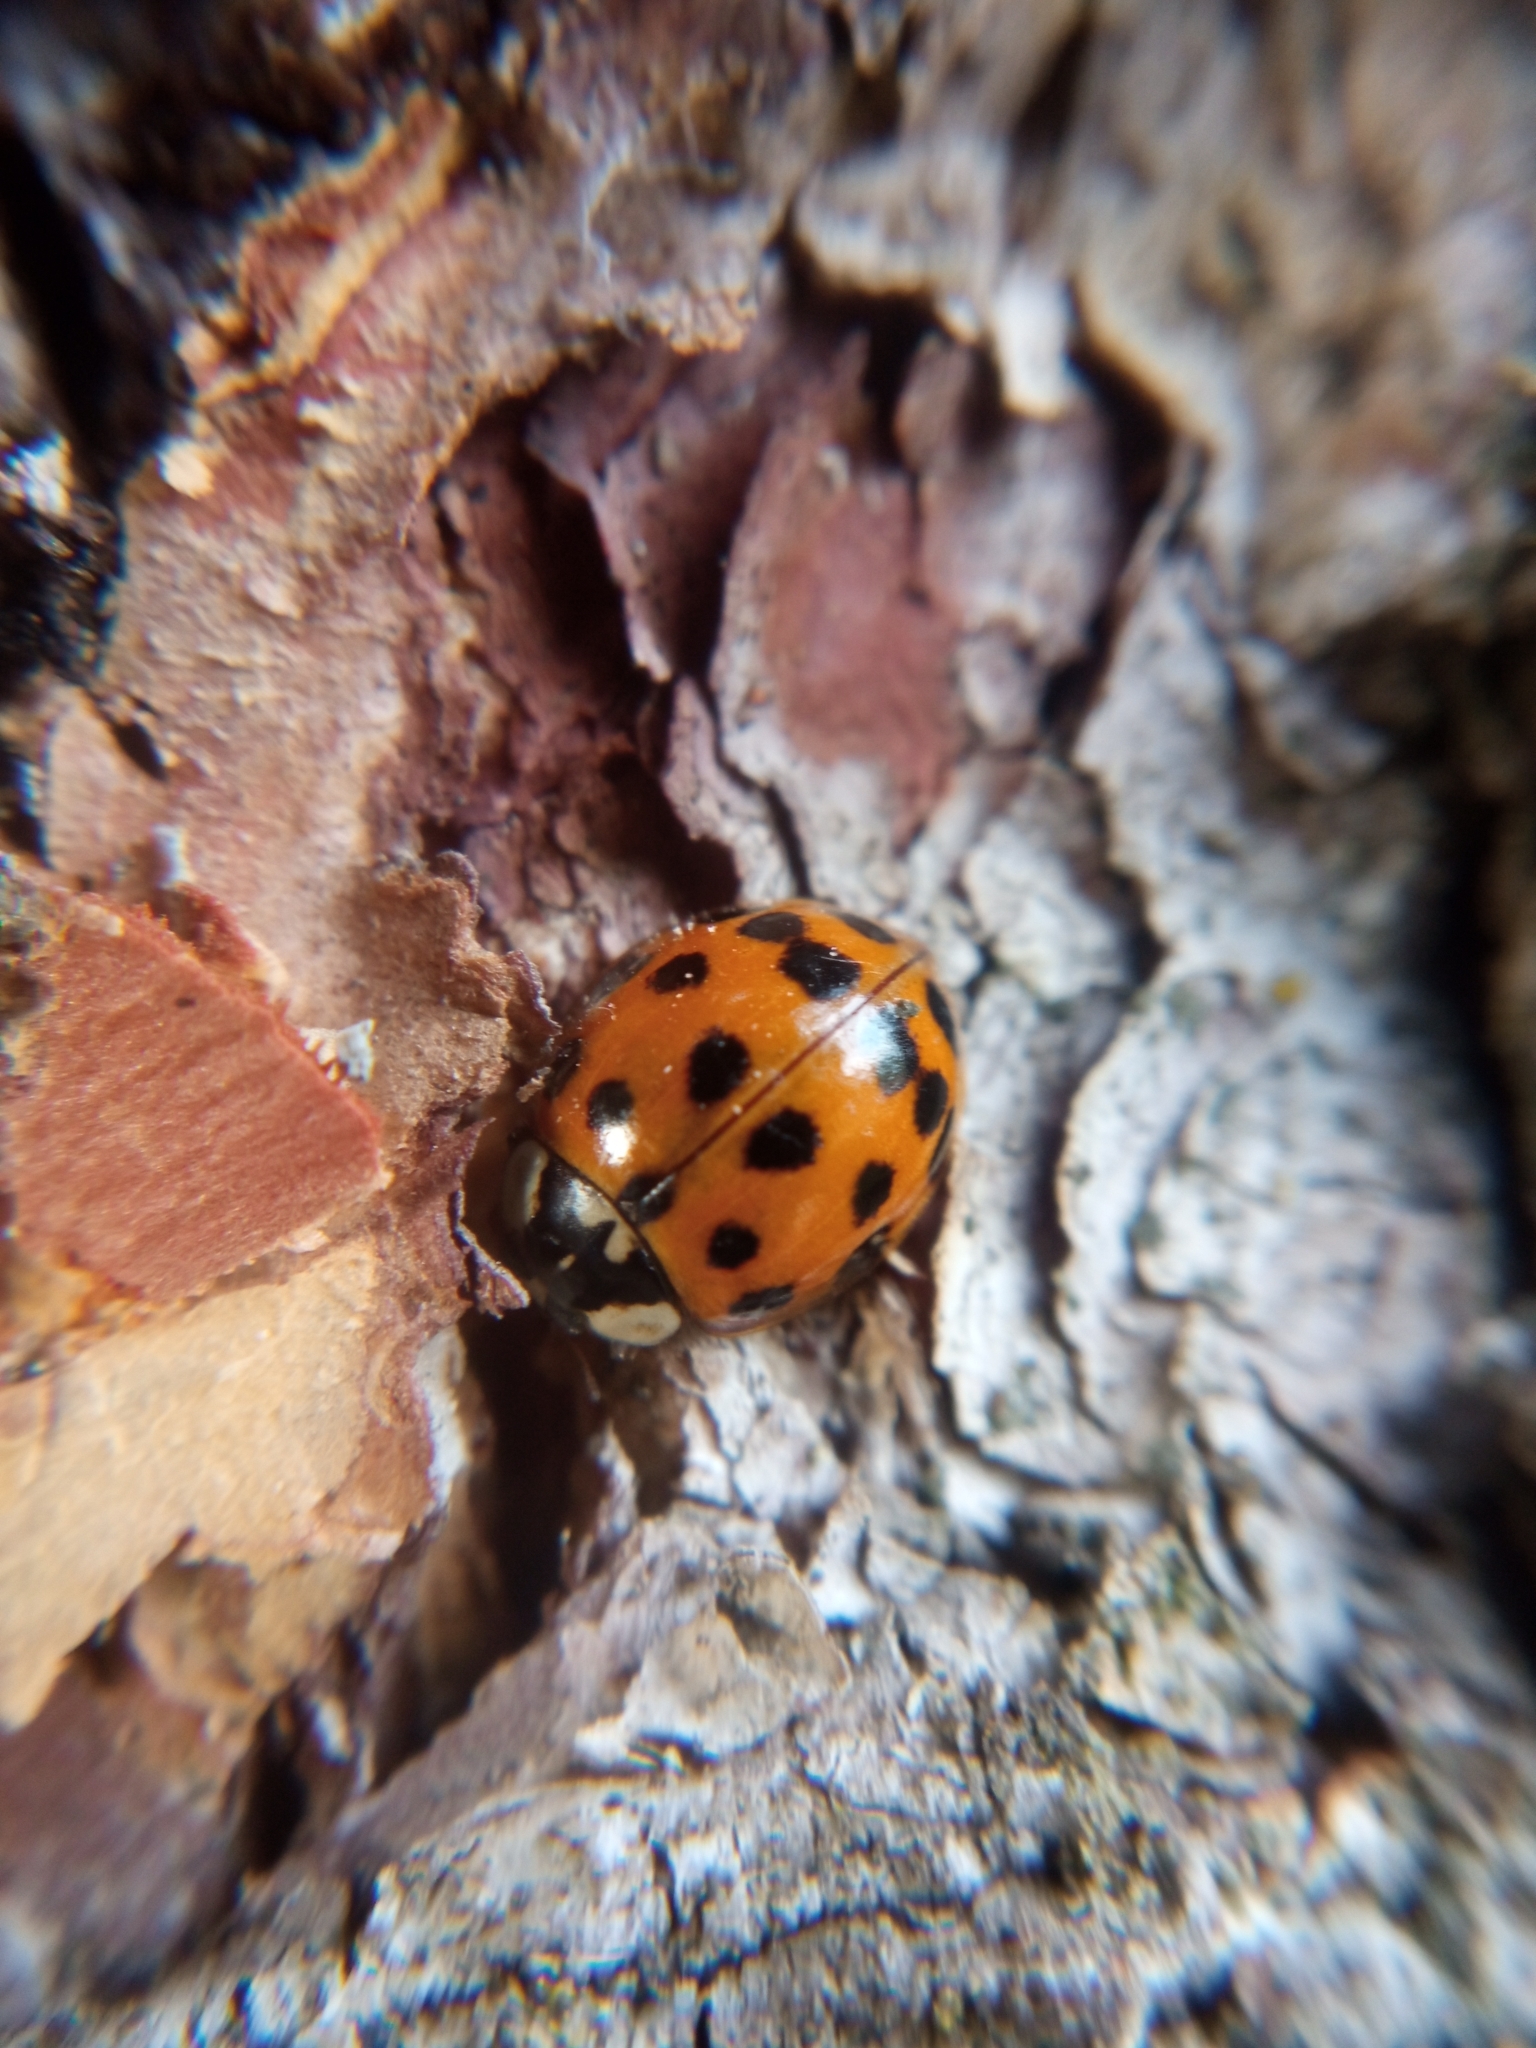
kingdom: Animalia
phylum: Arthropoda
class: Insecta
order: Coleoptera
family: Coccinellidae
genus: Harmonia
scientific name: Harmonia axyridis
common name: Harlequin ladybird
